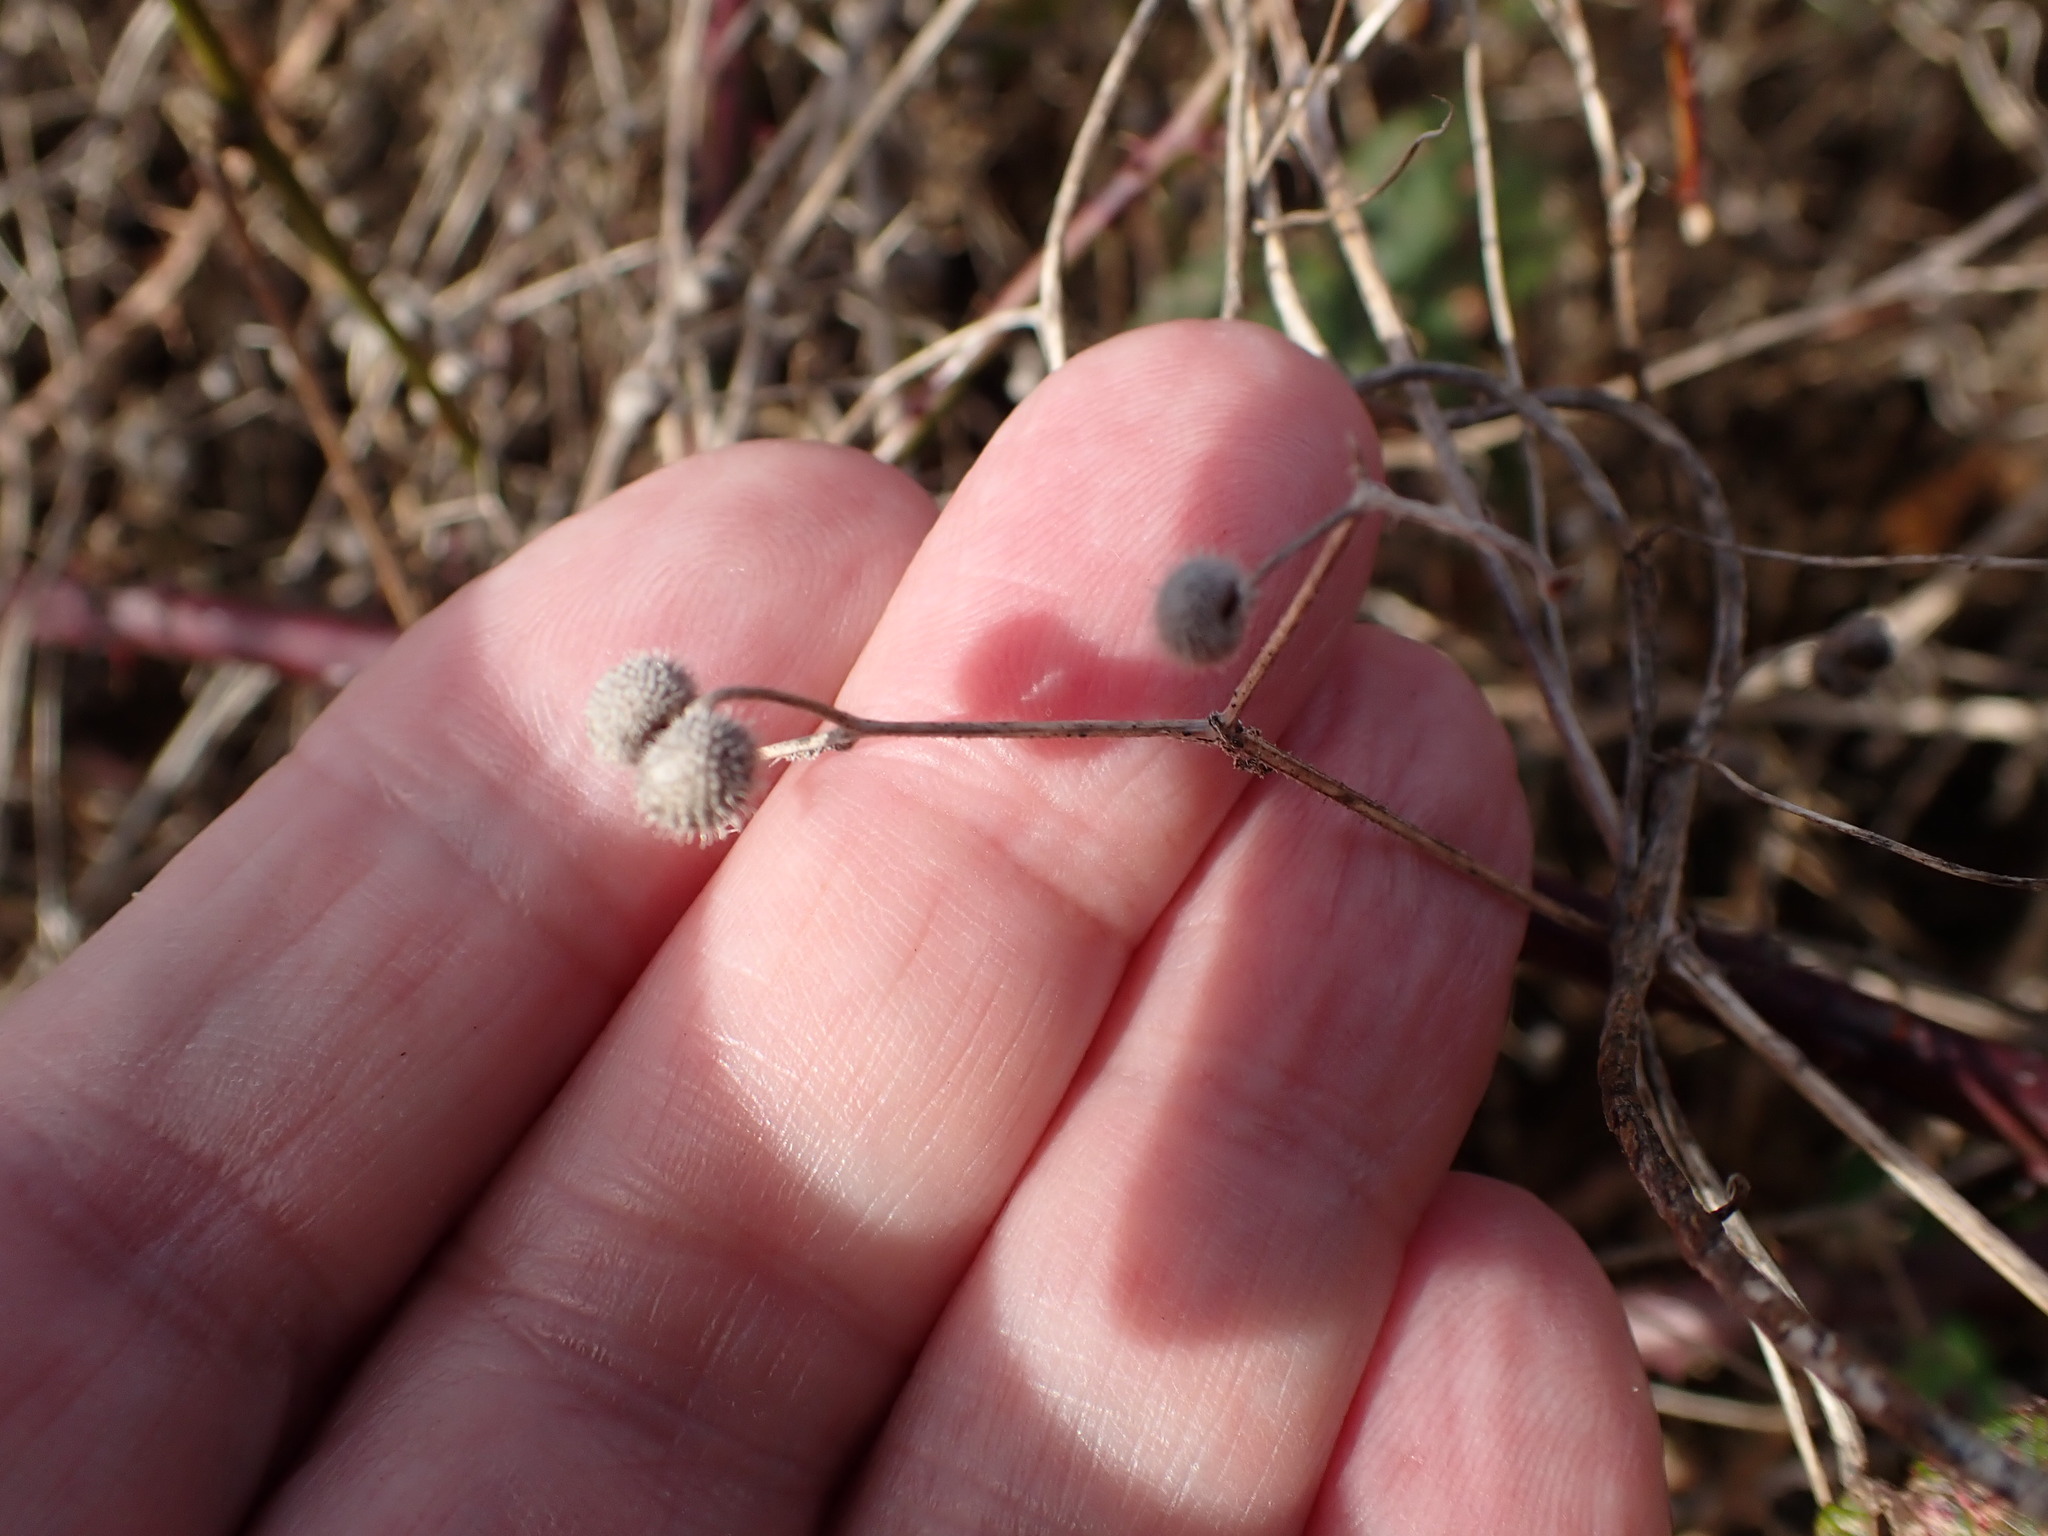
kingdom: Plantae
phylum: Tracheophyta
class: Magnoliopsida
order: Gentianales
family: Rubiaceae
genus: Galium
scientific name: Galium aparine
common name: Cleavers
